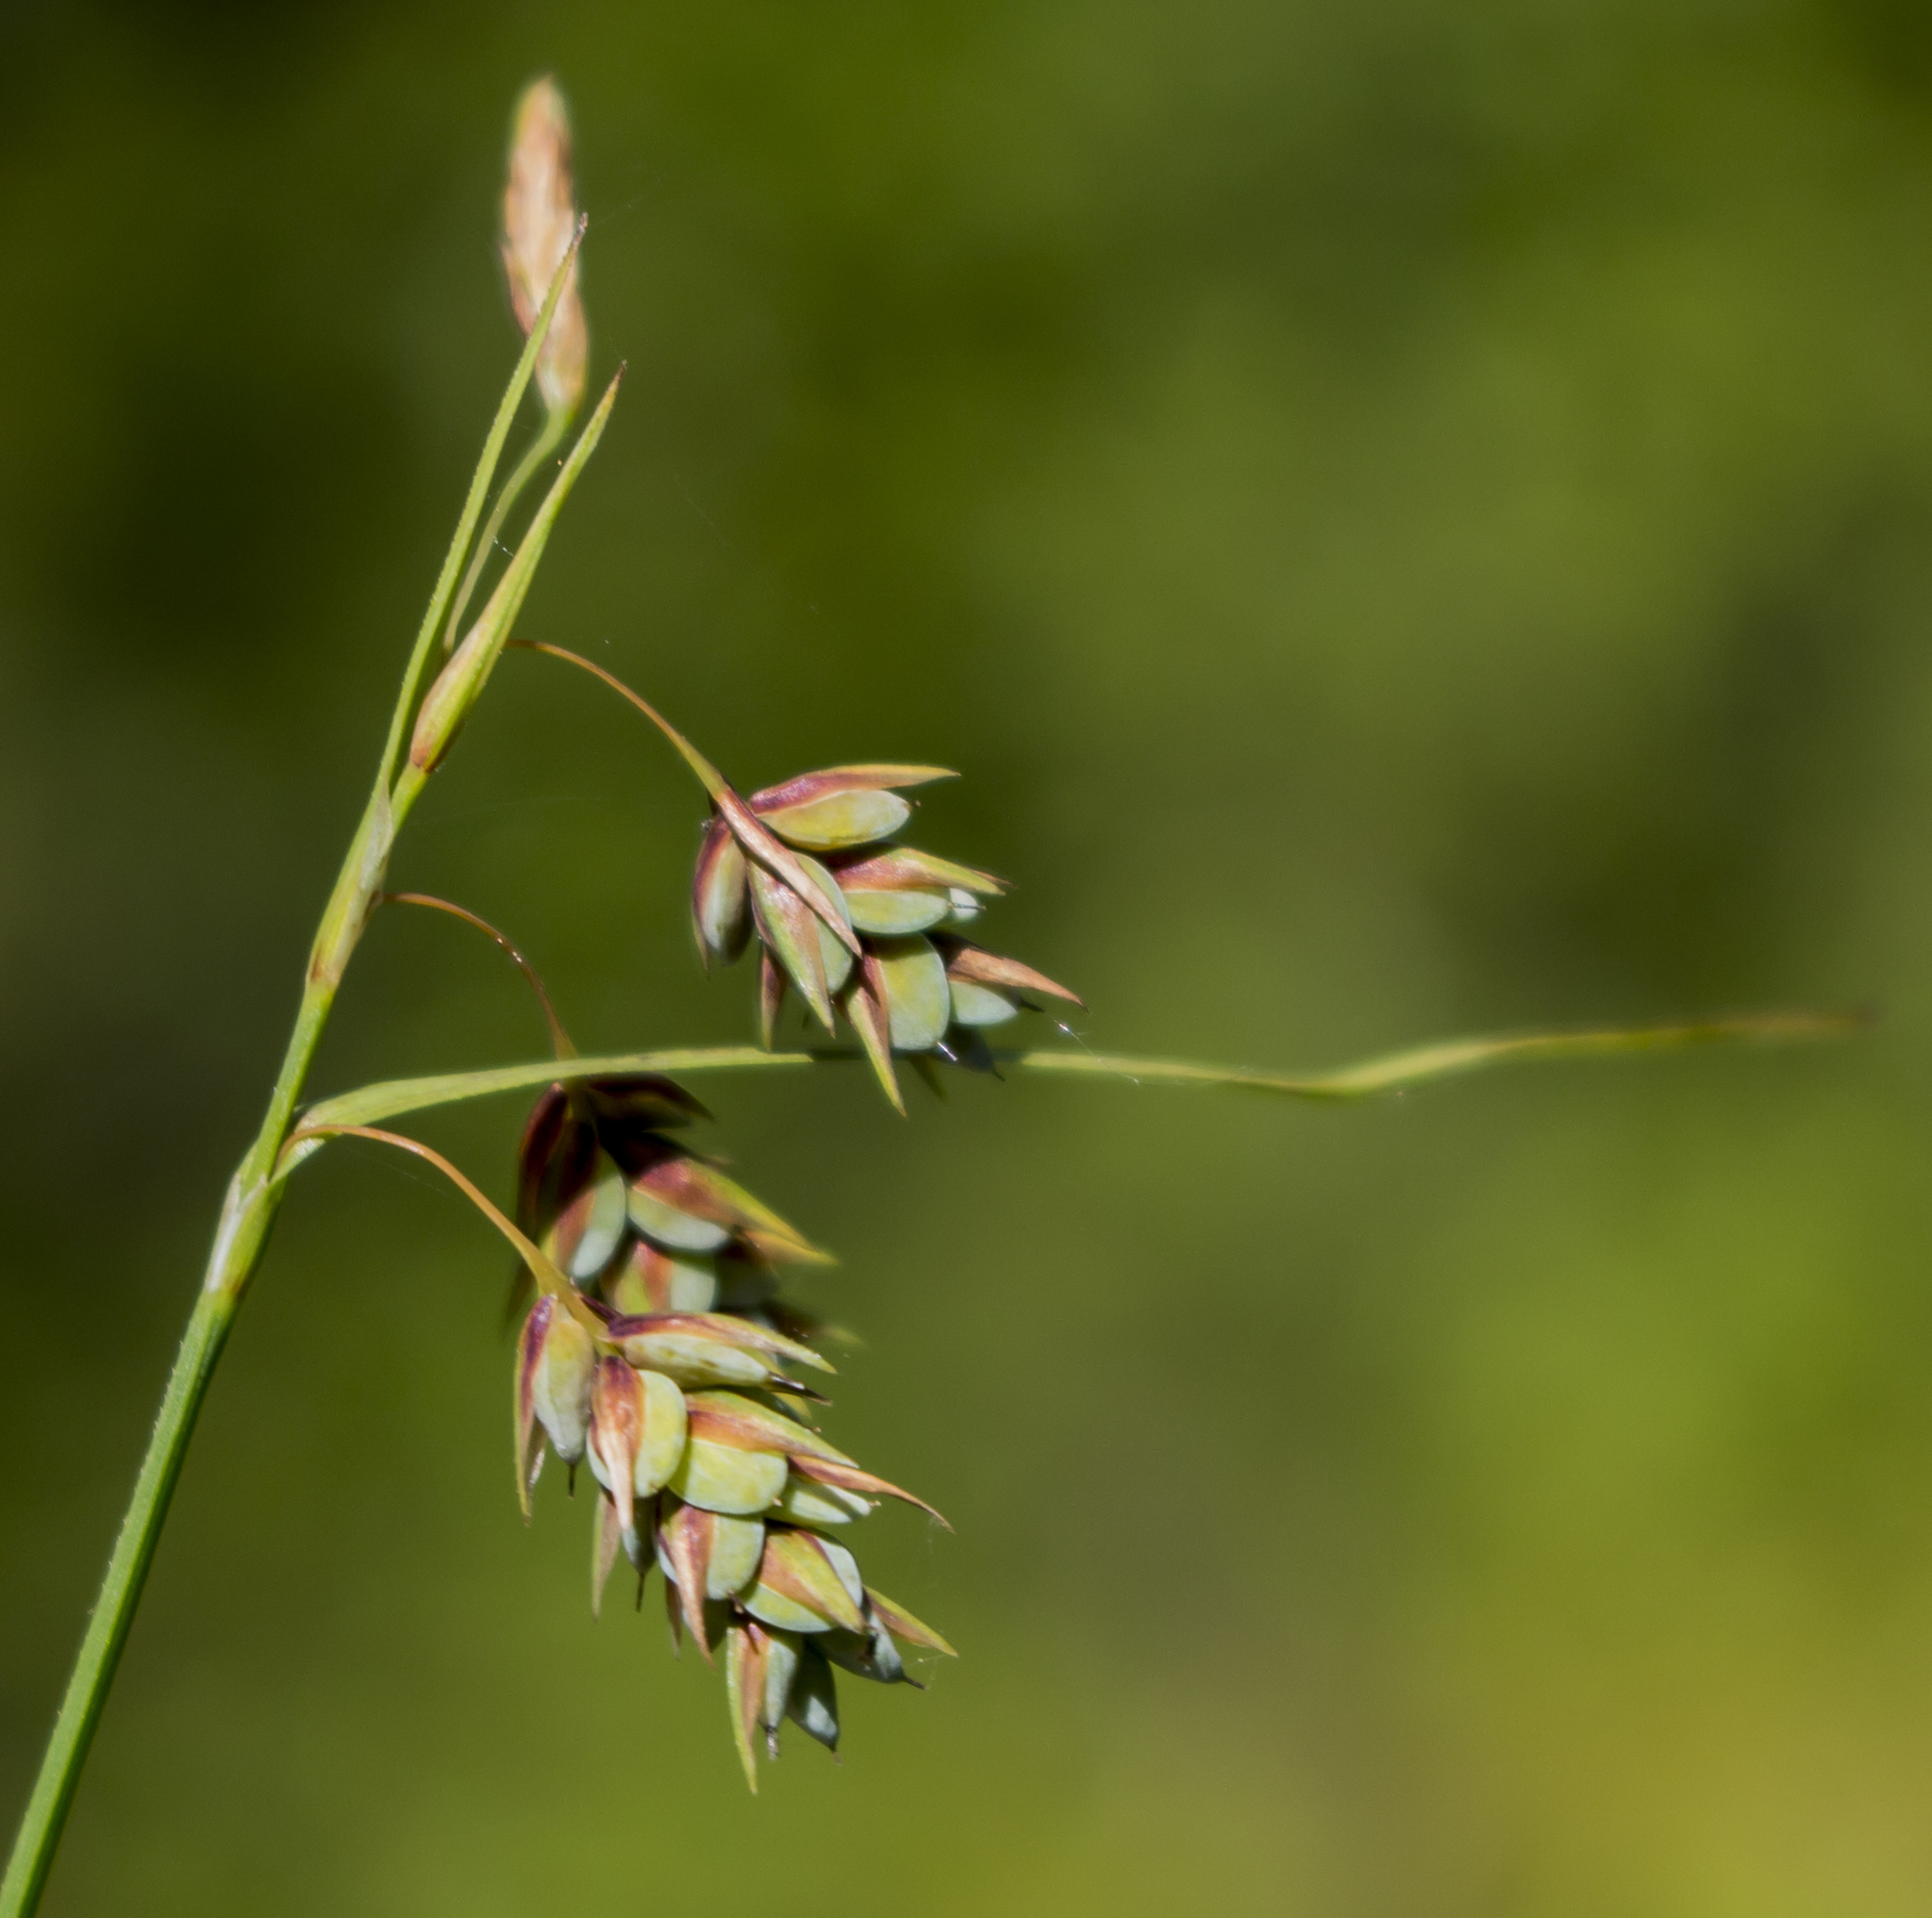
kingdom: Plantae
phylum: Tracheophyta
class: Liliopsida
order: Poales
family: Cyperaceae
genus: Carex
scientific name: Carex magellanica
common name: Bog sedge
